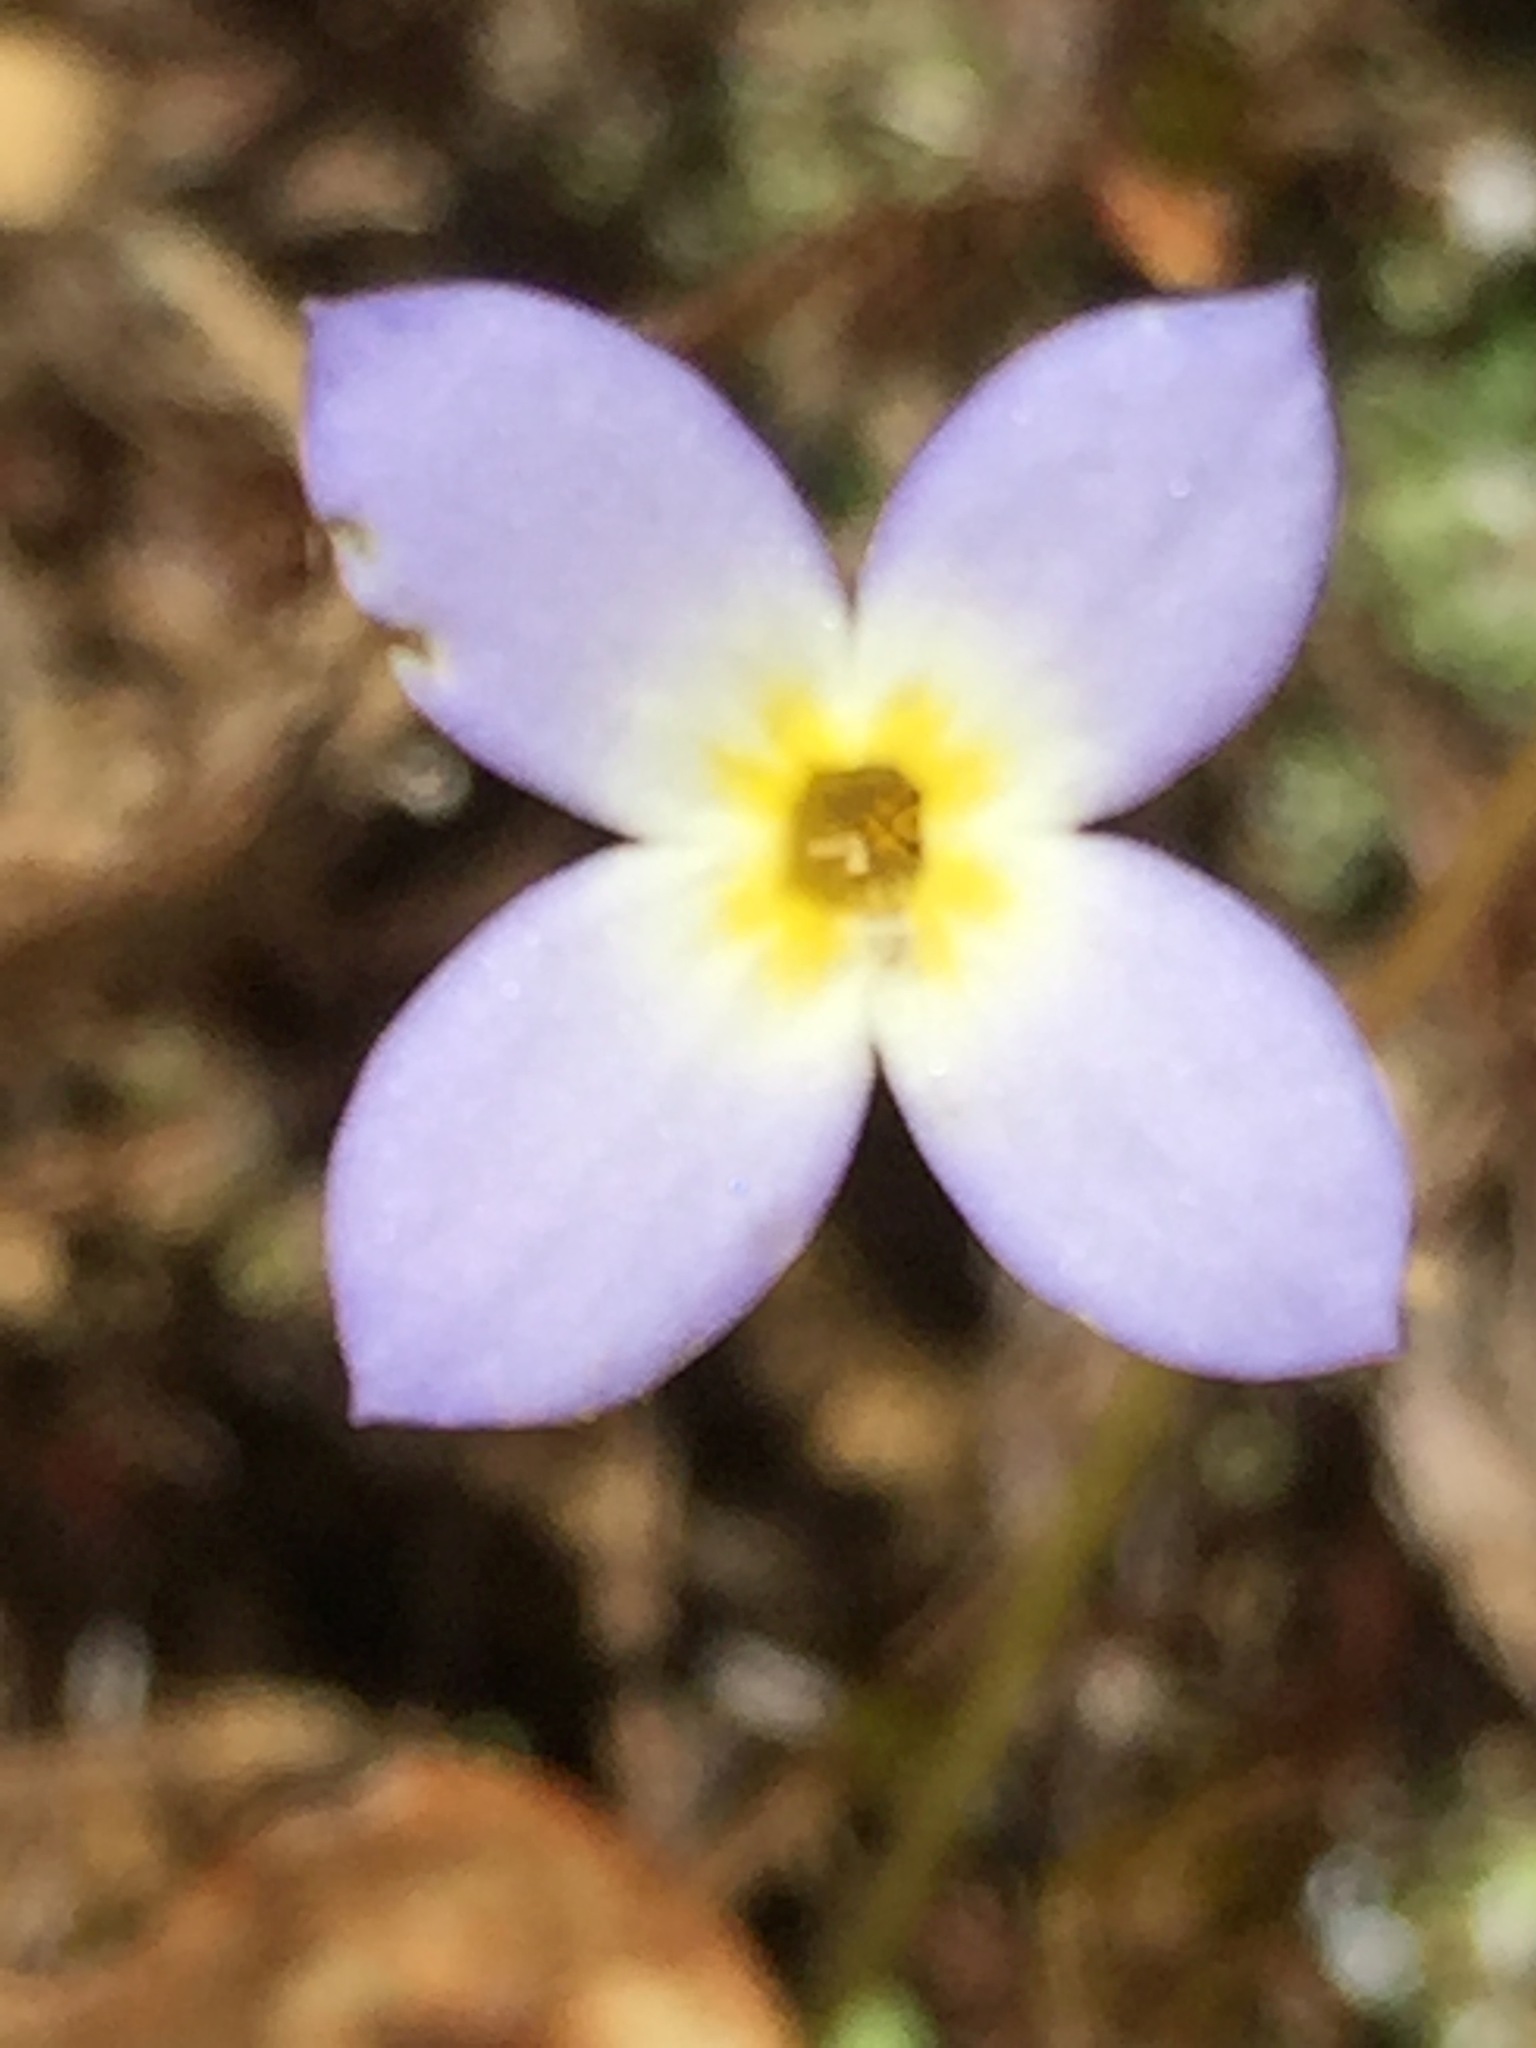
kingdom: Plantae
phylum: Tracheophyta
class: Magnoliopsida
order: Gentianales
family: Rubiaceae
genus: Houstonia
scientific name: Houstonia caerulea
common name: Bluets
